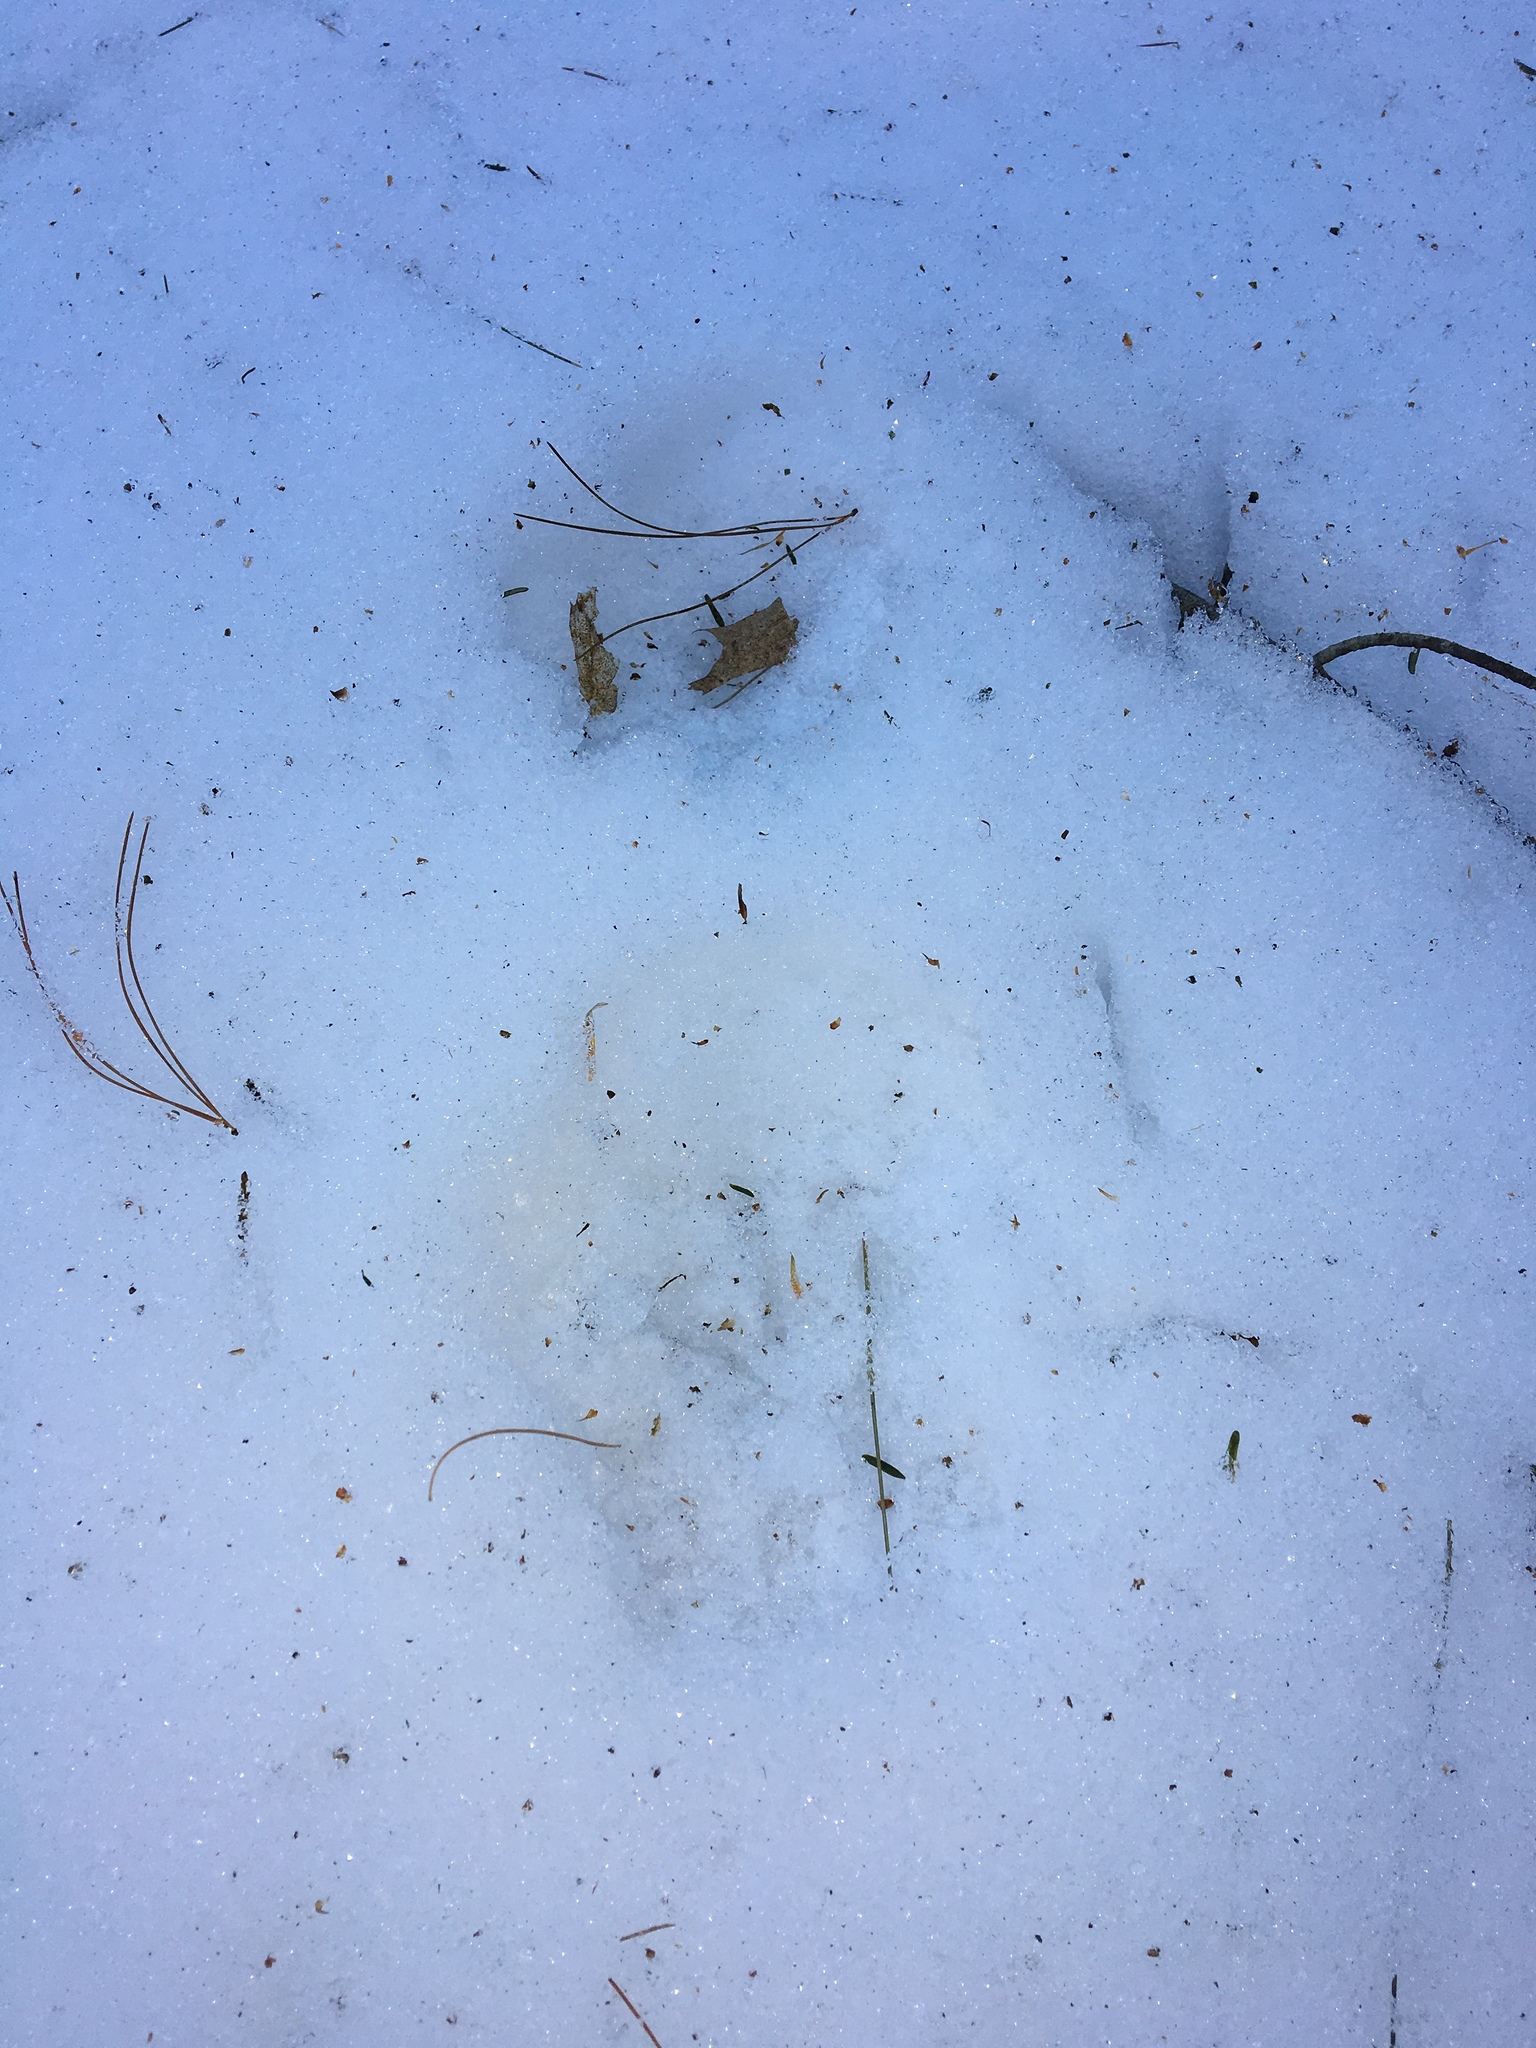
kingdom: Animalia
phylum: Chordata
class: Mammalia
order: Carnivora
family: Mustelidae
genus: Pekania
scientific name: Pekania pennanti
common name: Fisher
